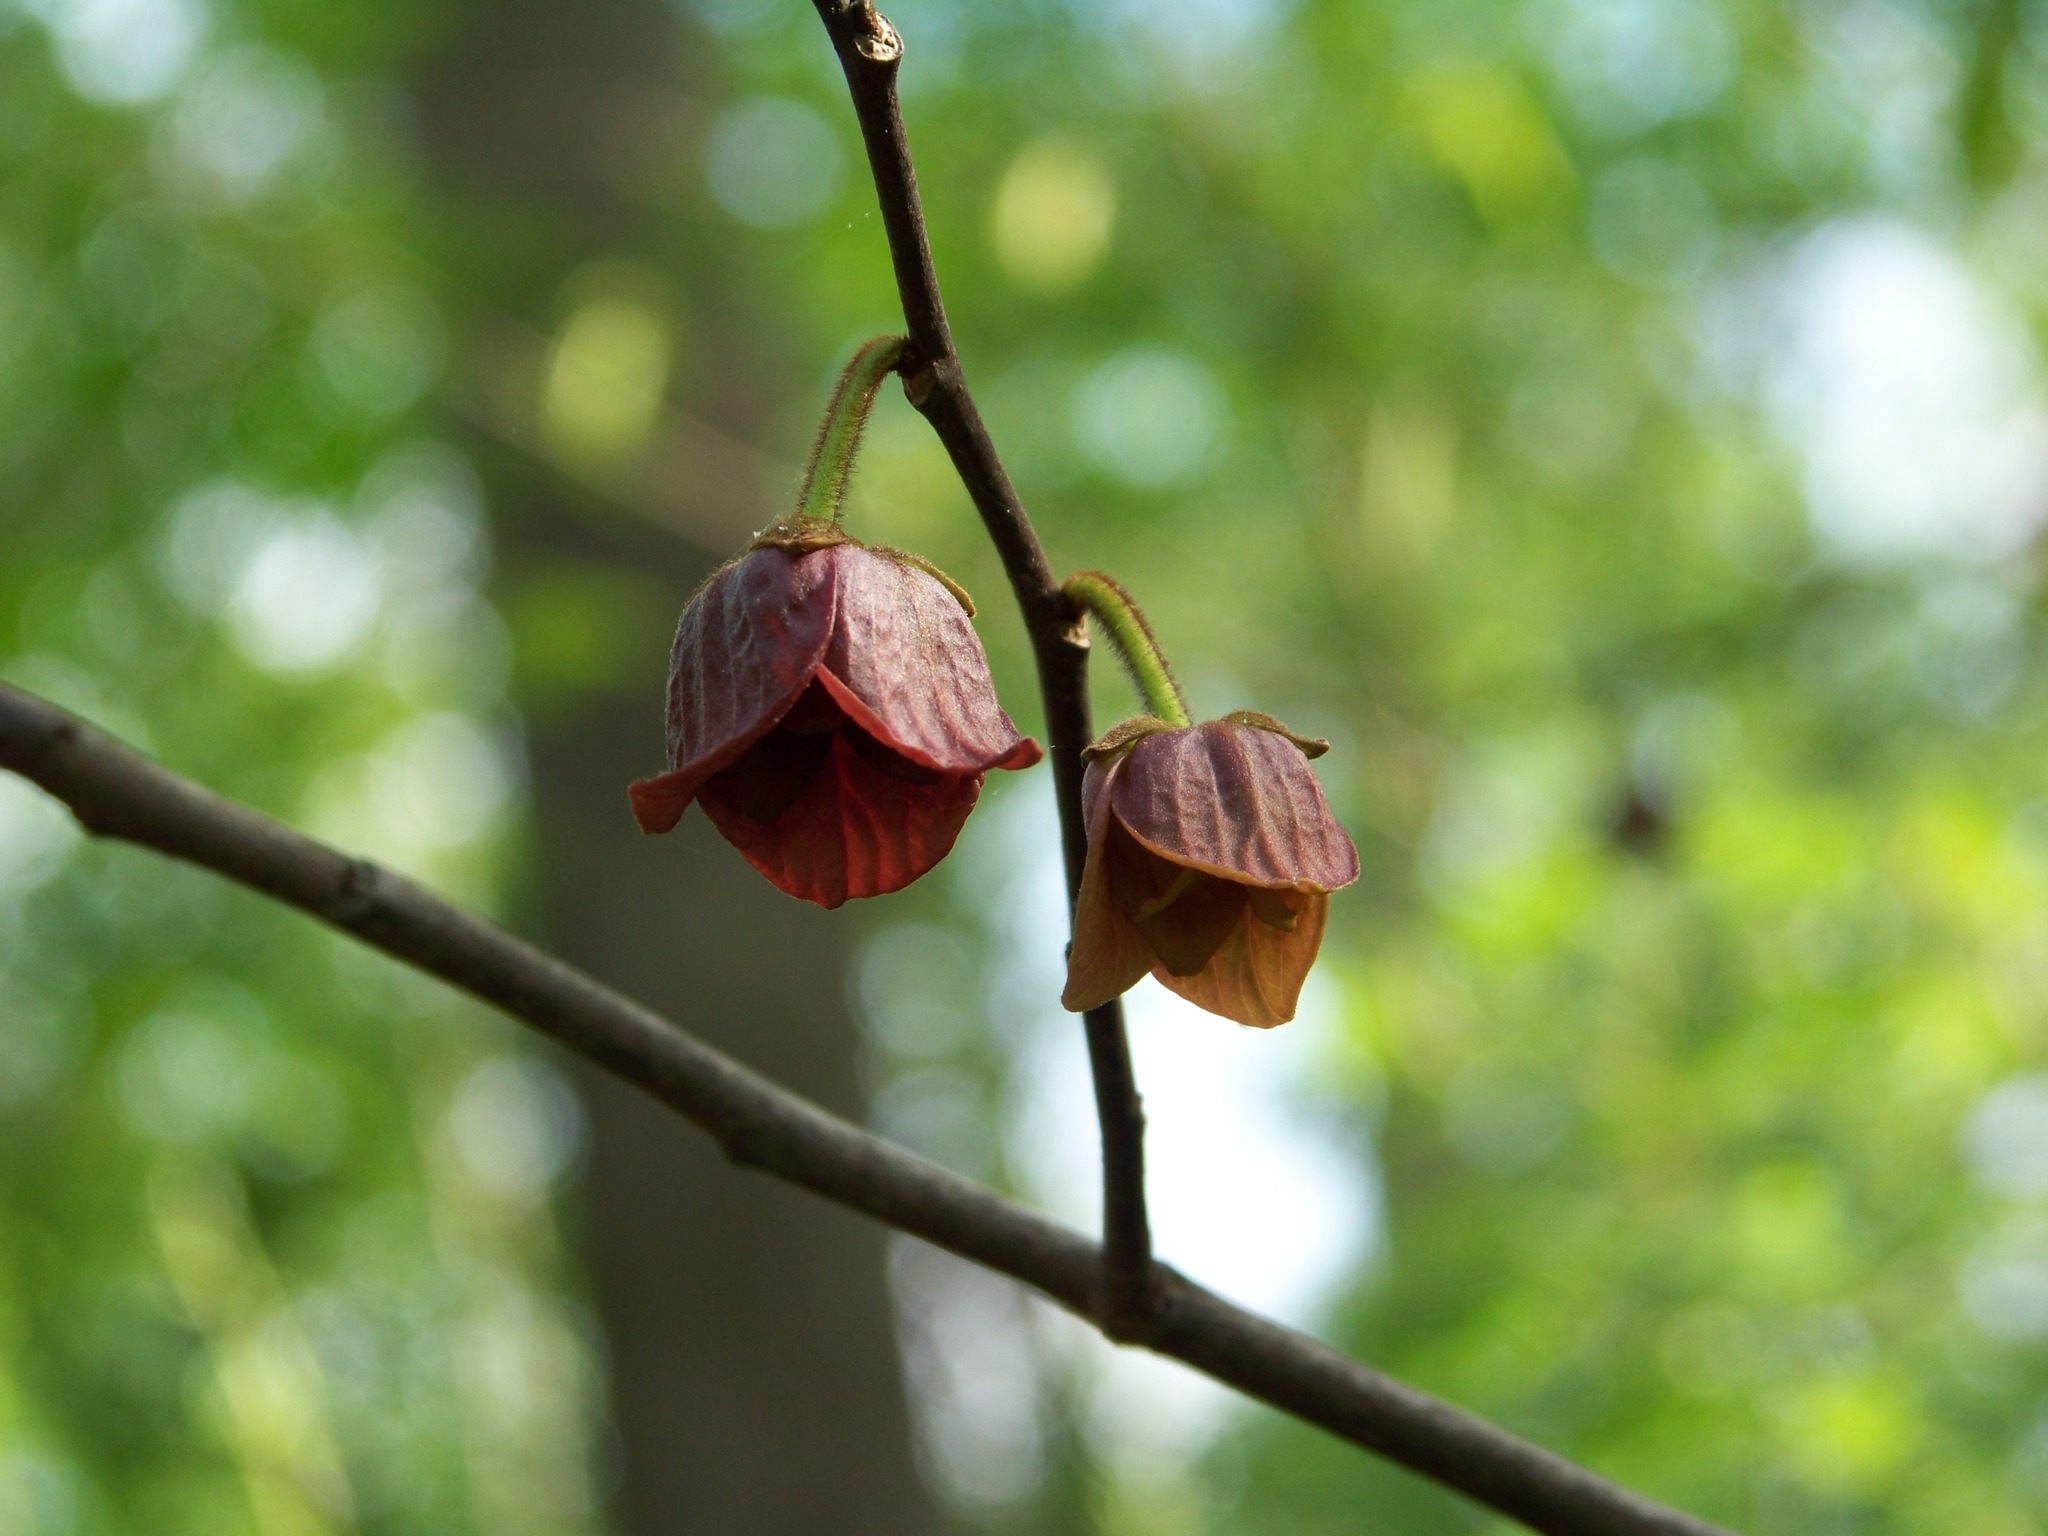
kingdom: Plantae
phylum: Tracheophyta
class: Magnoliopsida
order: Magnoliales
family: Annonaceae
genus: Asimina
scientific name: Asimina triloba
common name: Dog-banana
